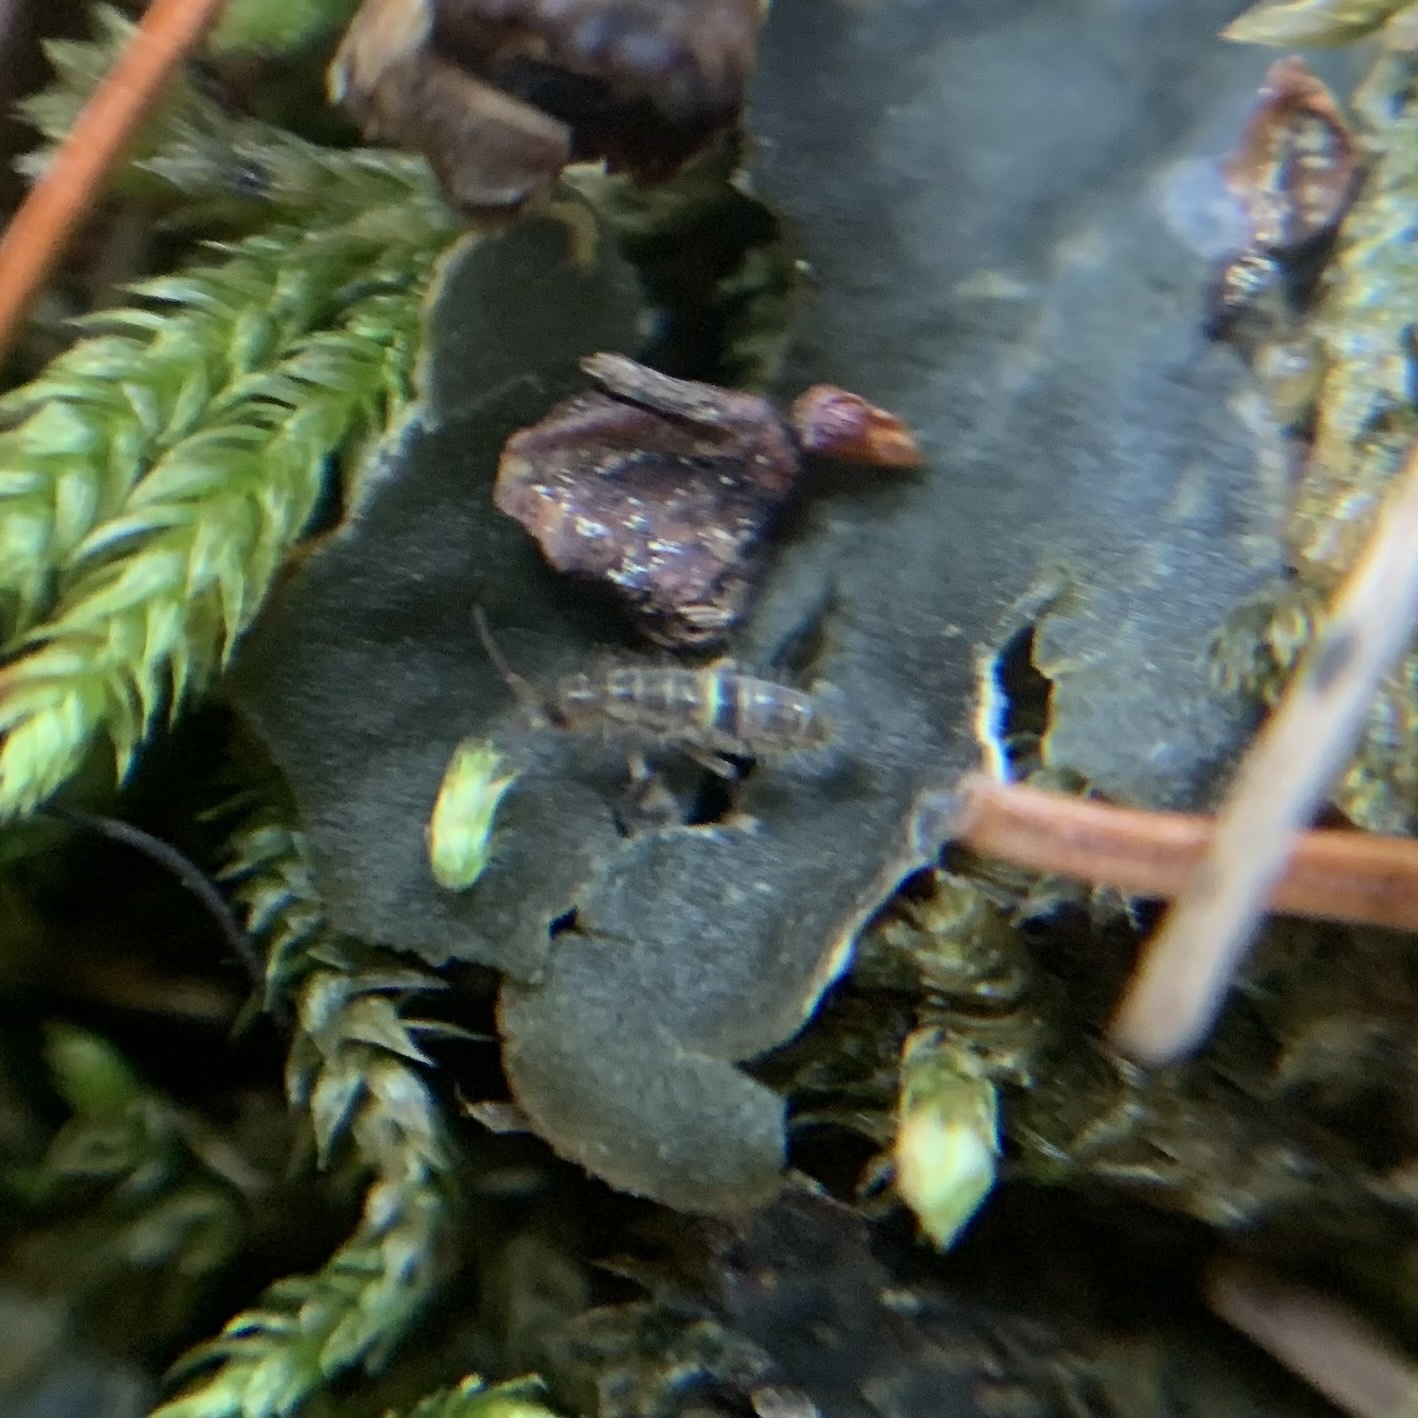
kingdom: Animalia
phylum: Arthropoda
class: Collembola
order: Entomobryomorpha
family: Orchesellidae
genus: Orchesella
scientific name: Orchesella cincta
